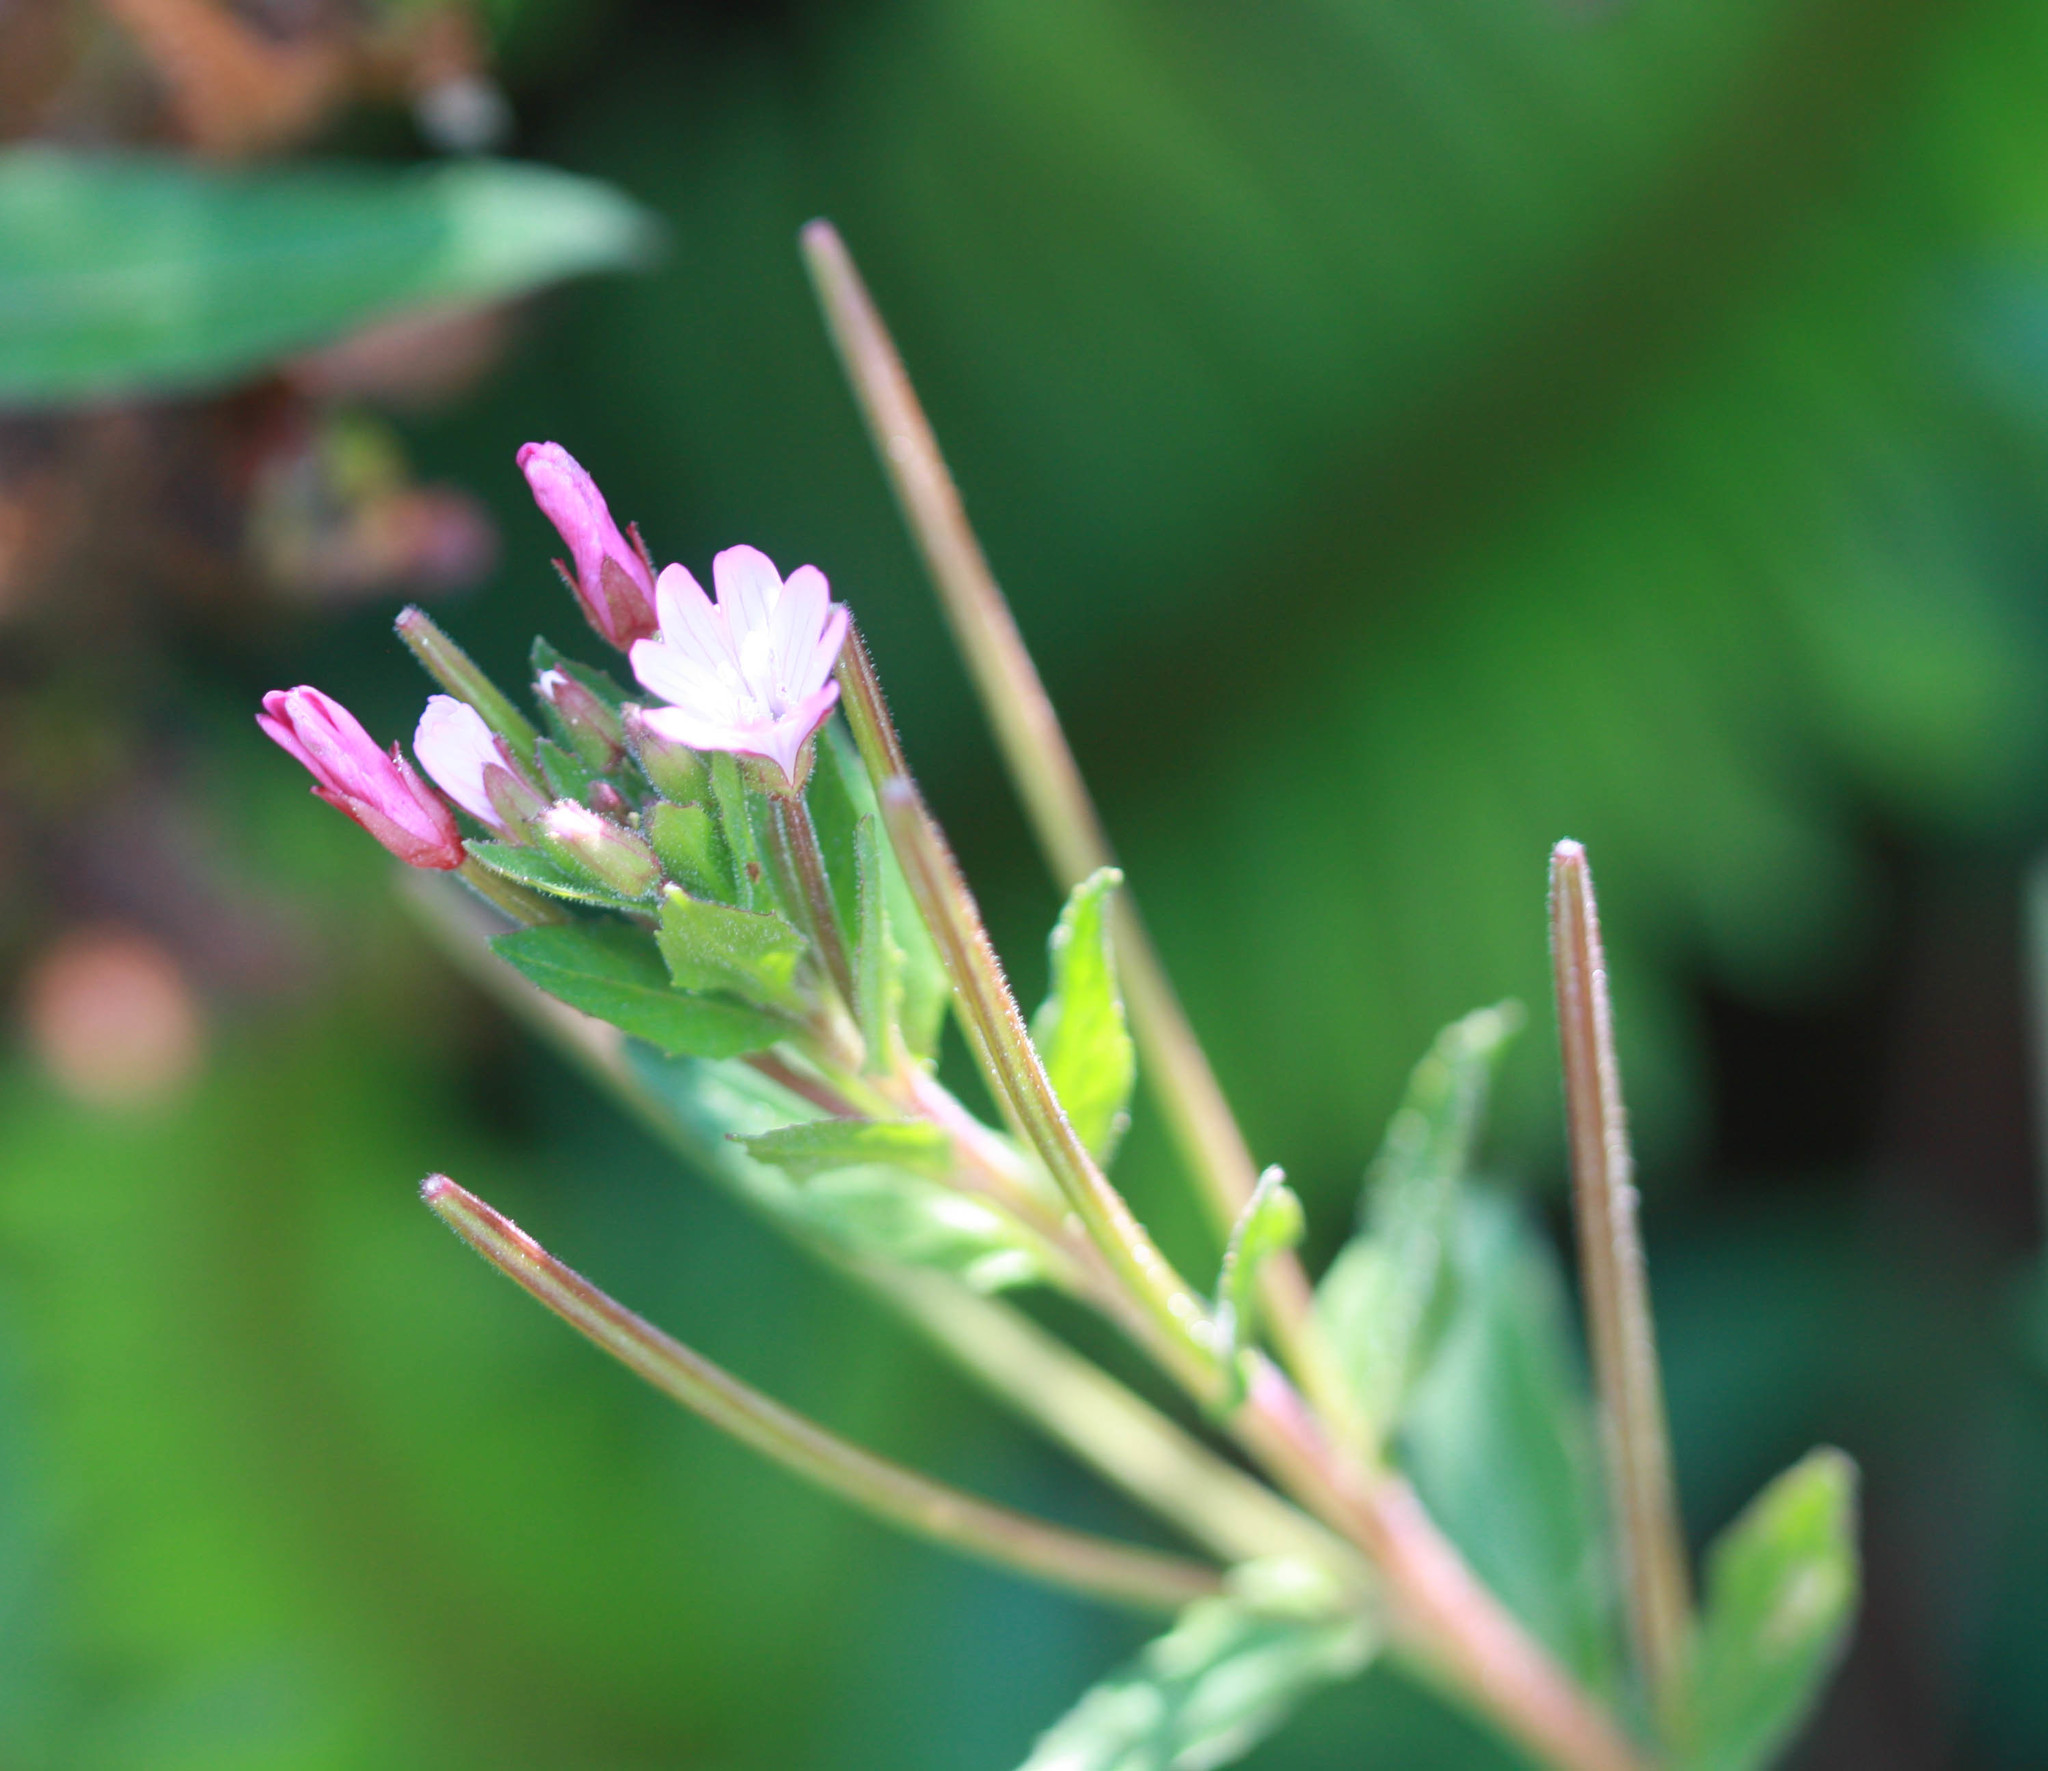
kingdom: Plantae
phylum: Tracheophyta
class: Magnoliopsida
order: Myrtales
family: Onagraceae
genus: Epilobium
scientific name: Epilobium ciliatum
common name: American willowherb
